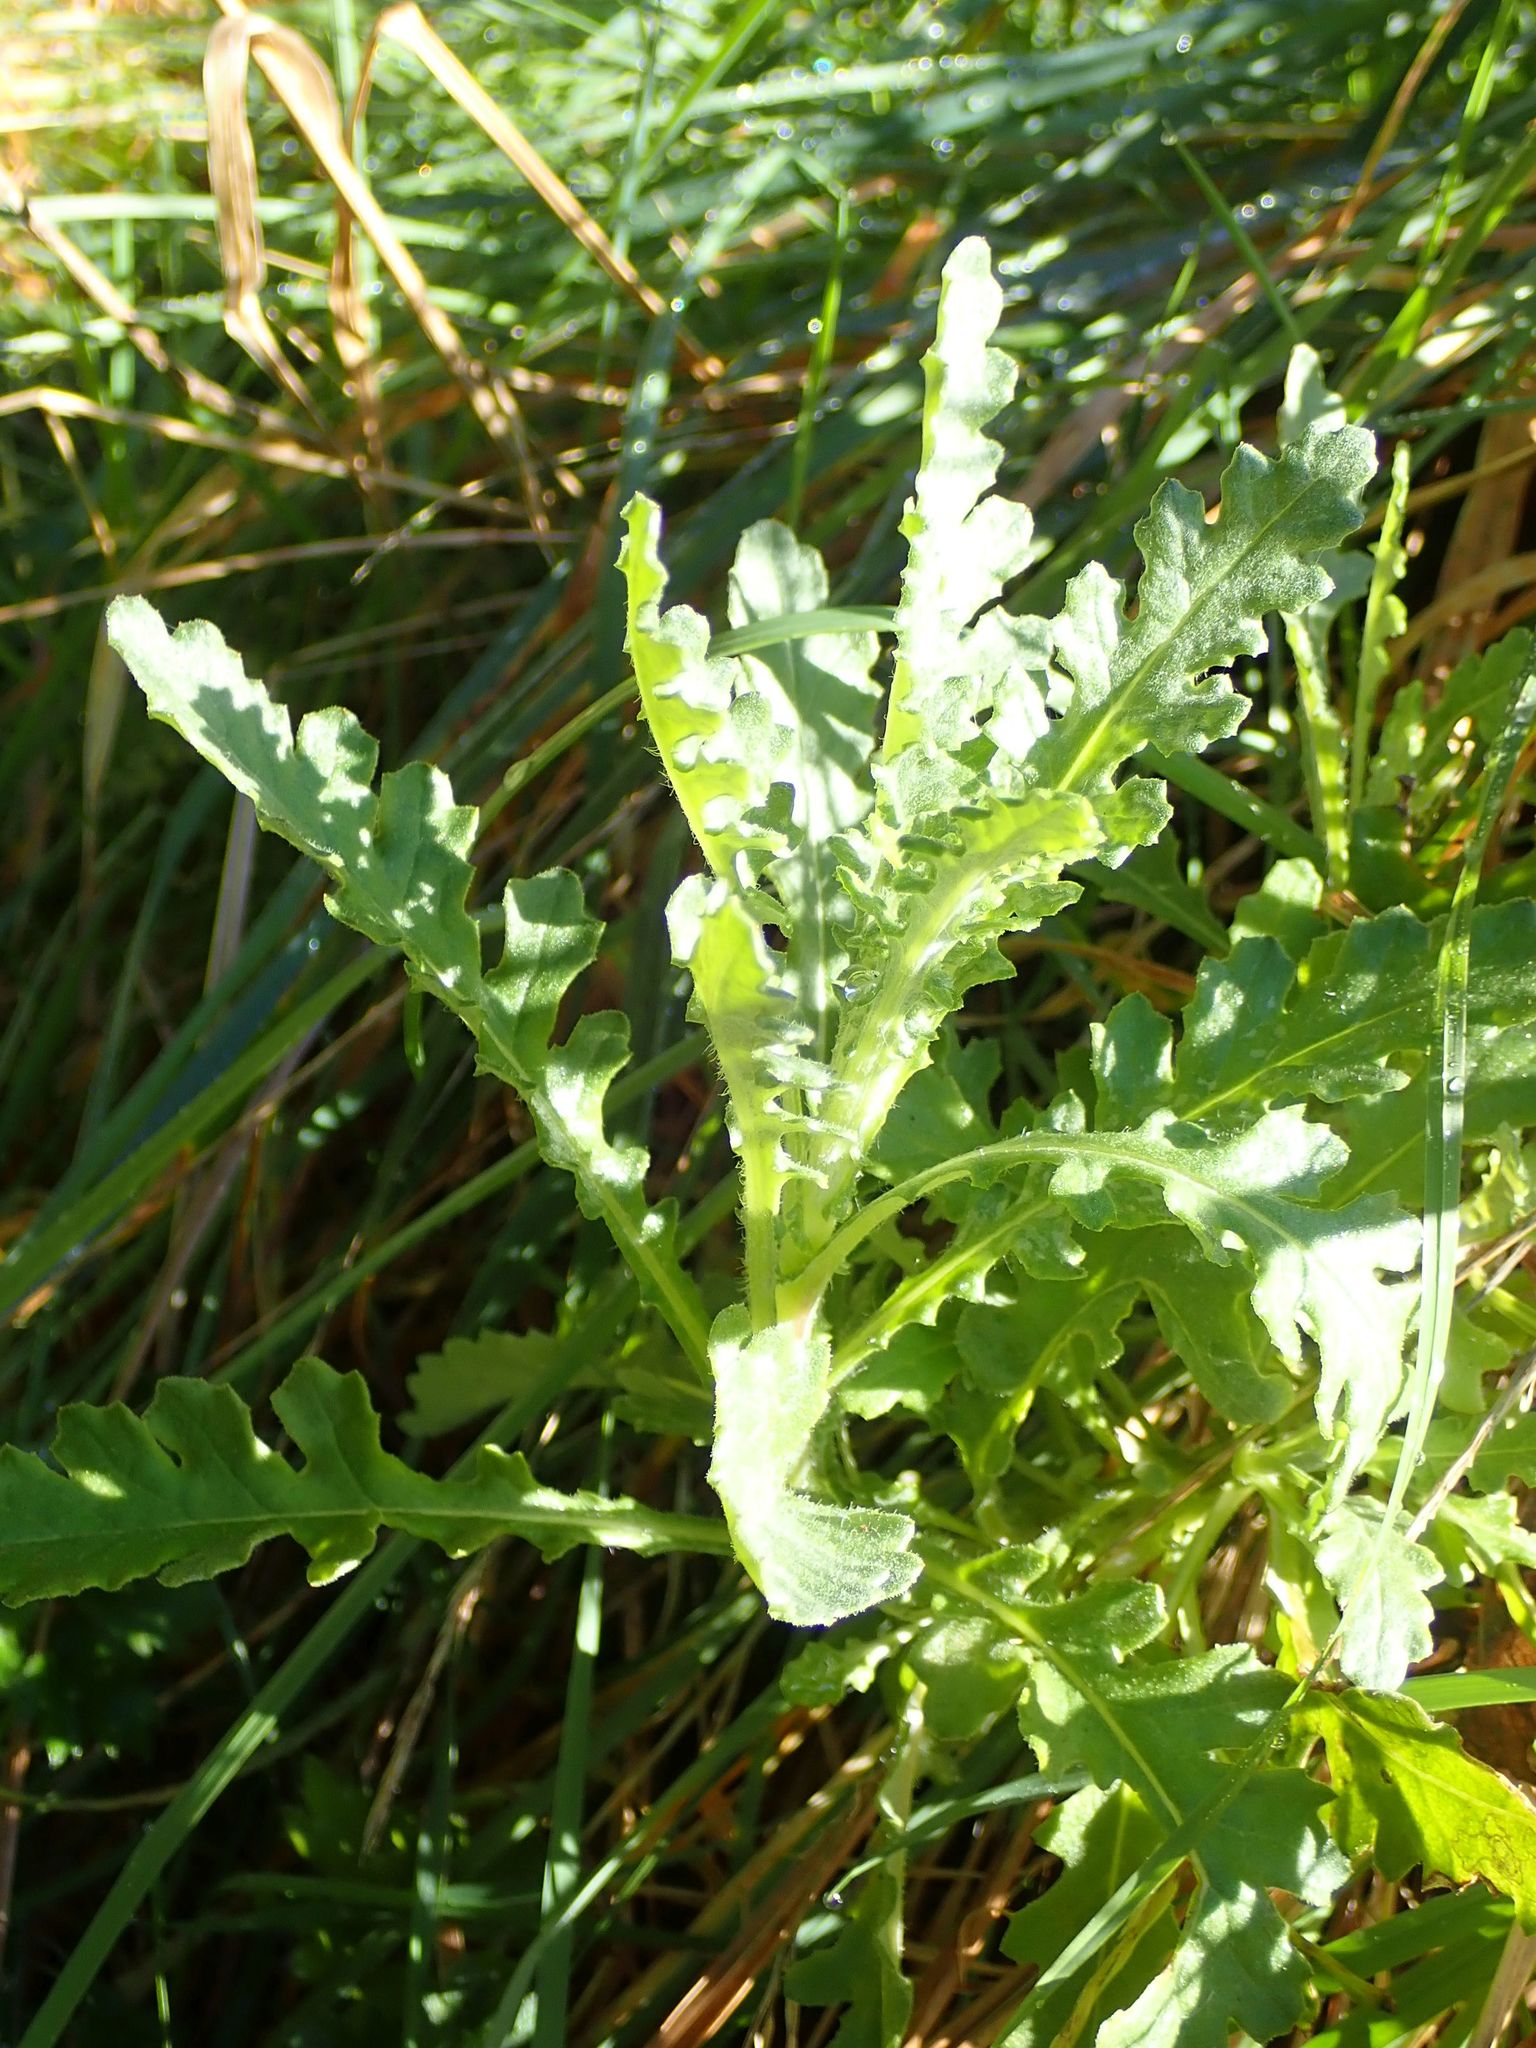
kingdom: Plantae
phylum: Tracheophyta
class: Magnoliopsida
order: Asterales
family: Asteraceae
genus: Senecio
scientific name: Senecio glomeratus
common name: Cutleaf burnweed
